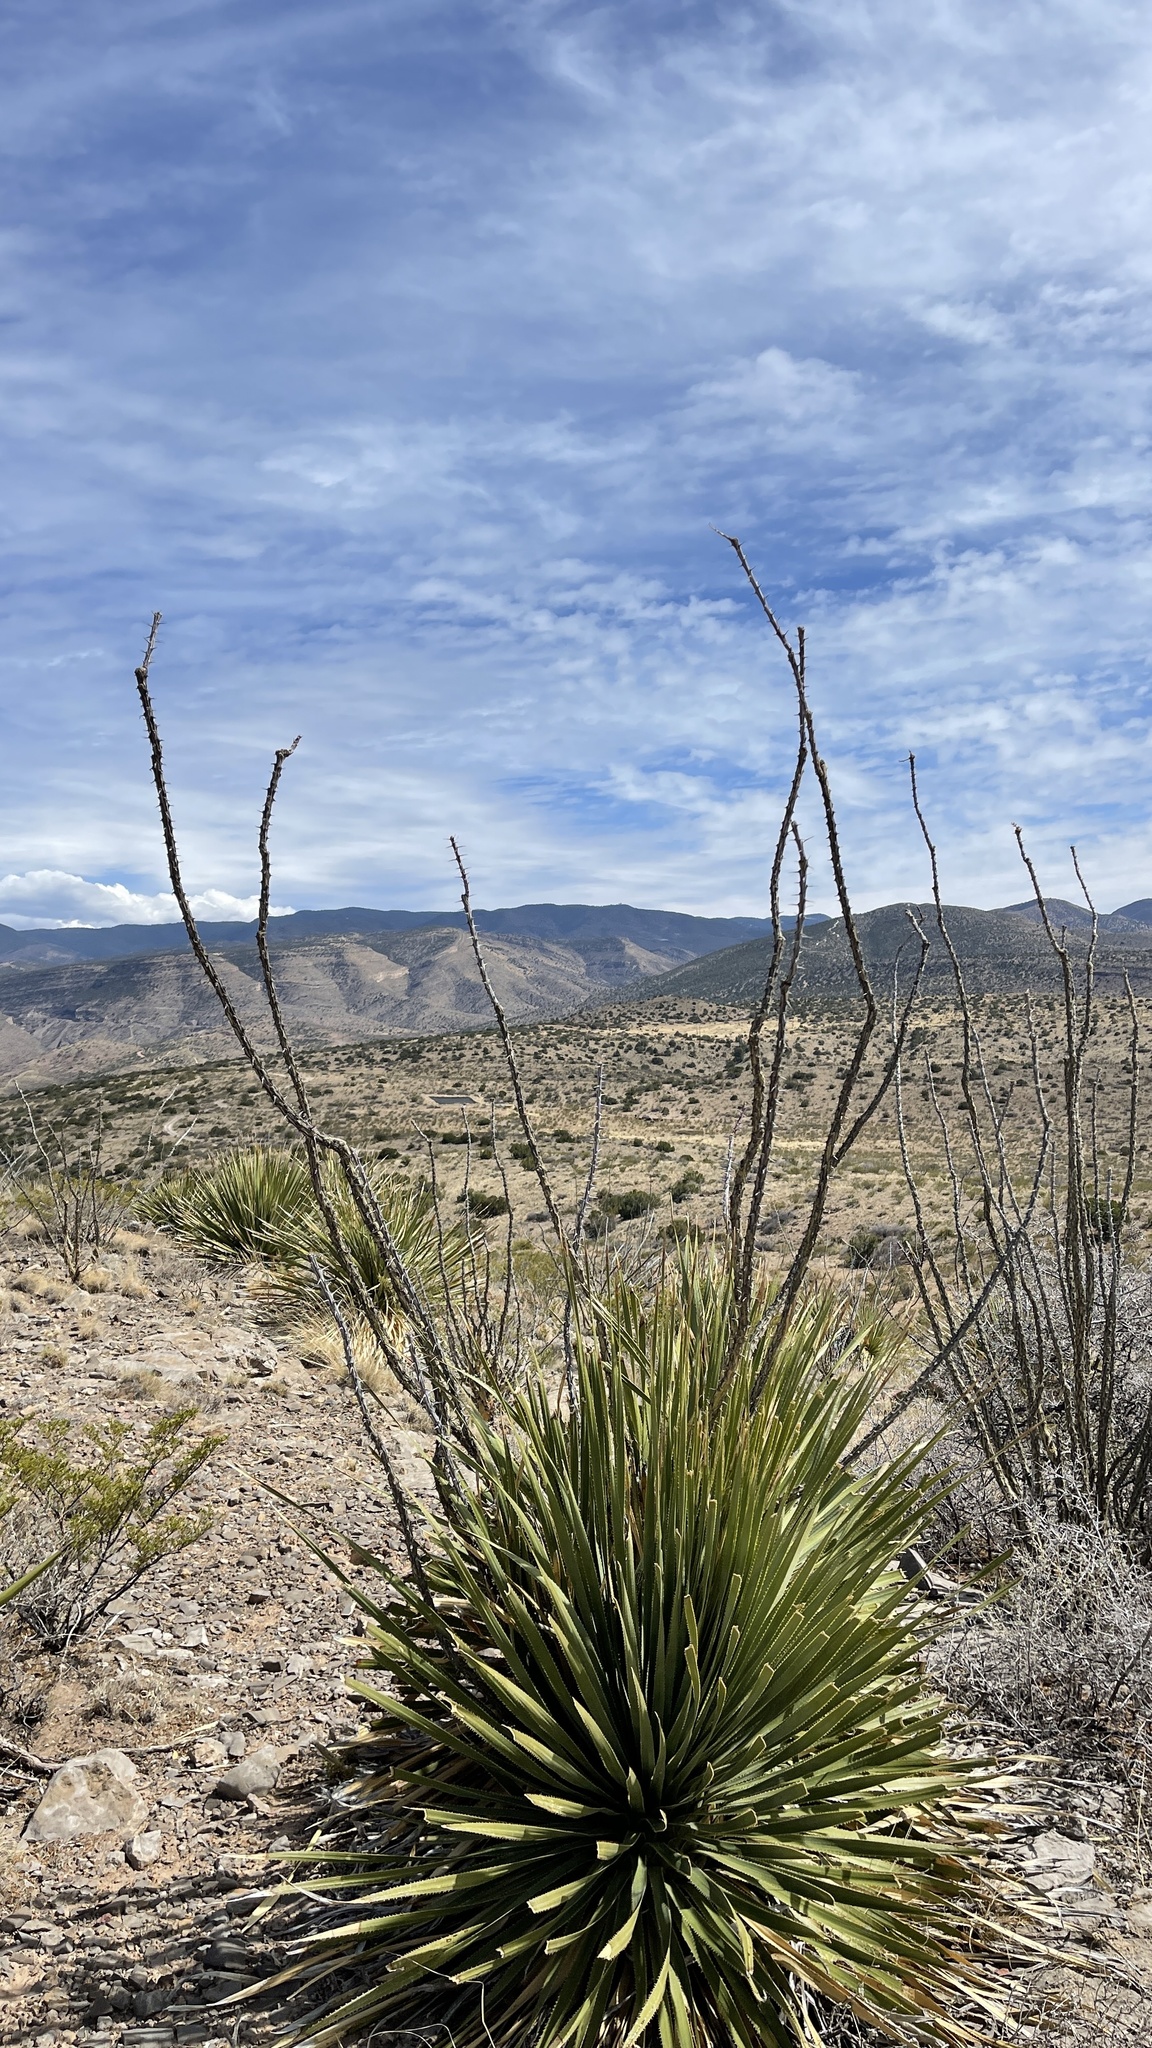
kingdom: Plantae
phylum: Tracheophyta
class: Magnoliopsida
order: Ericales
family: Fouquieriaceae
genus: Fouquieria
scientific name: Fouquieria splendens
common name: Vine-cactus
